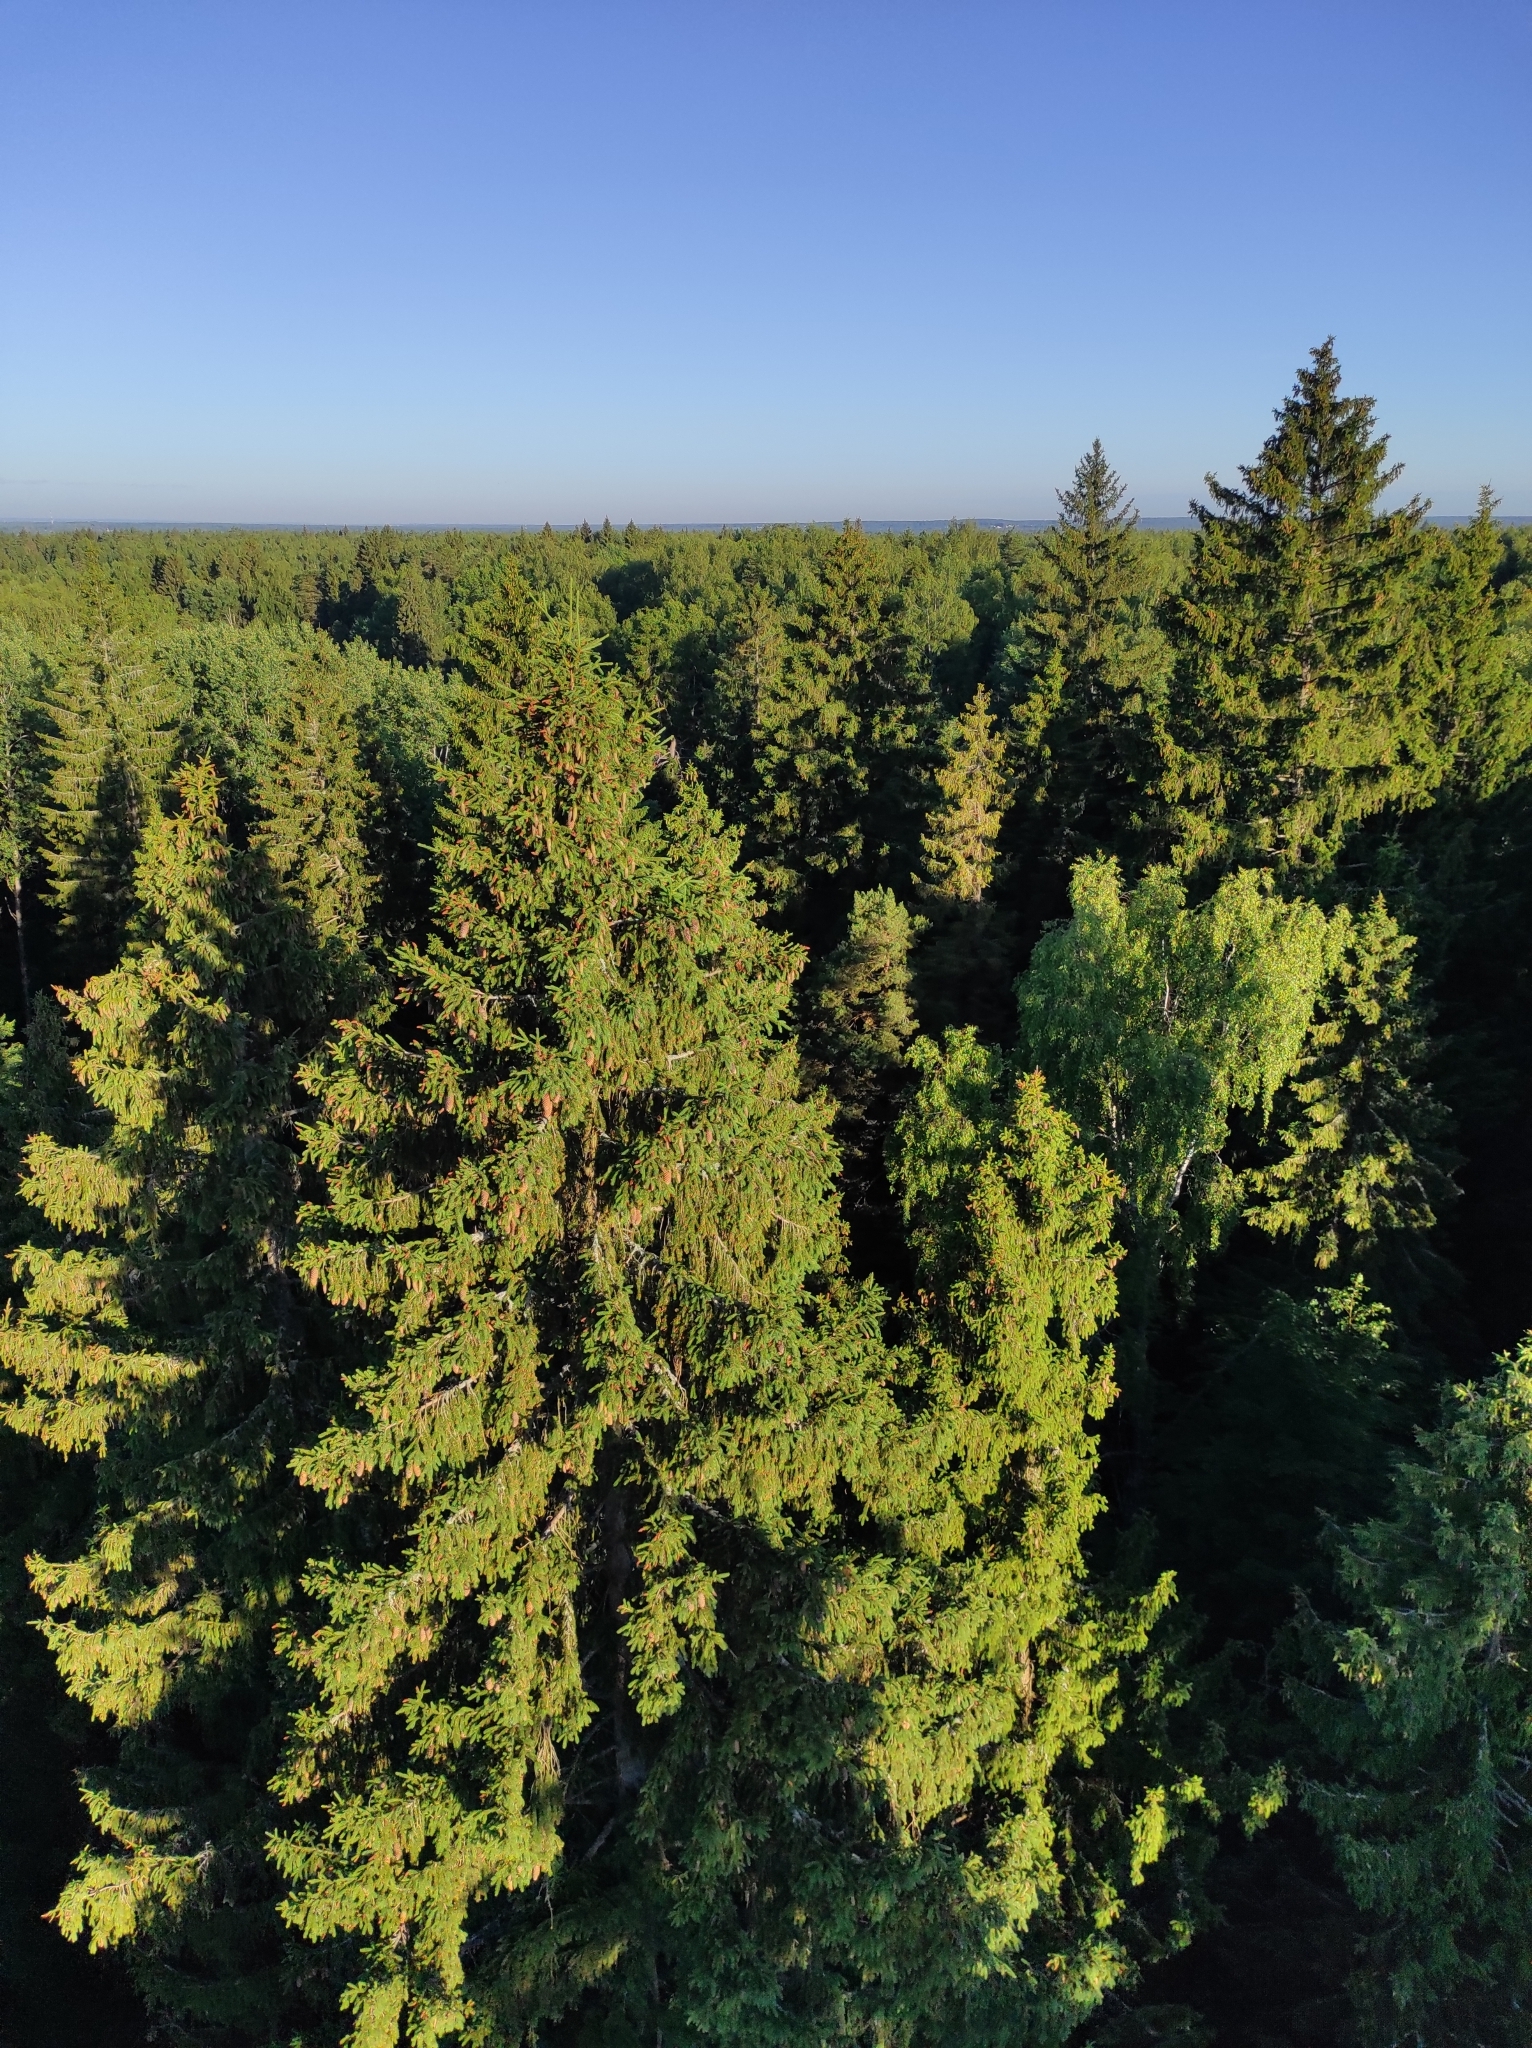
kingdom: Plantae
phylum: Tracheophyta
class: Pinopsida
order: Pinales
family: Pinaceae
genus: Picea
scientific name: Picea abies
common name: Norway spruce
